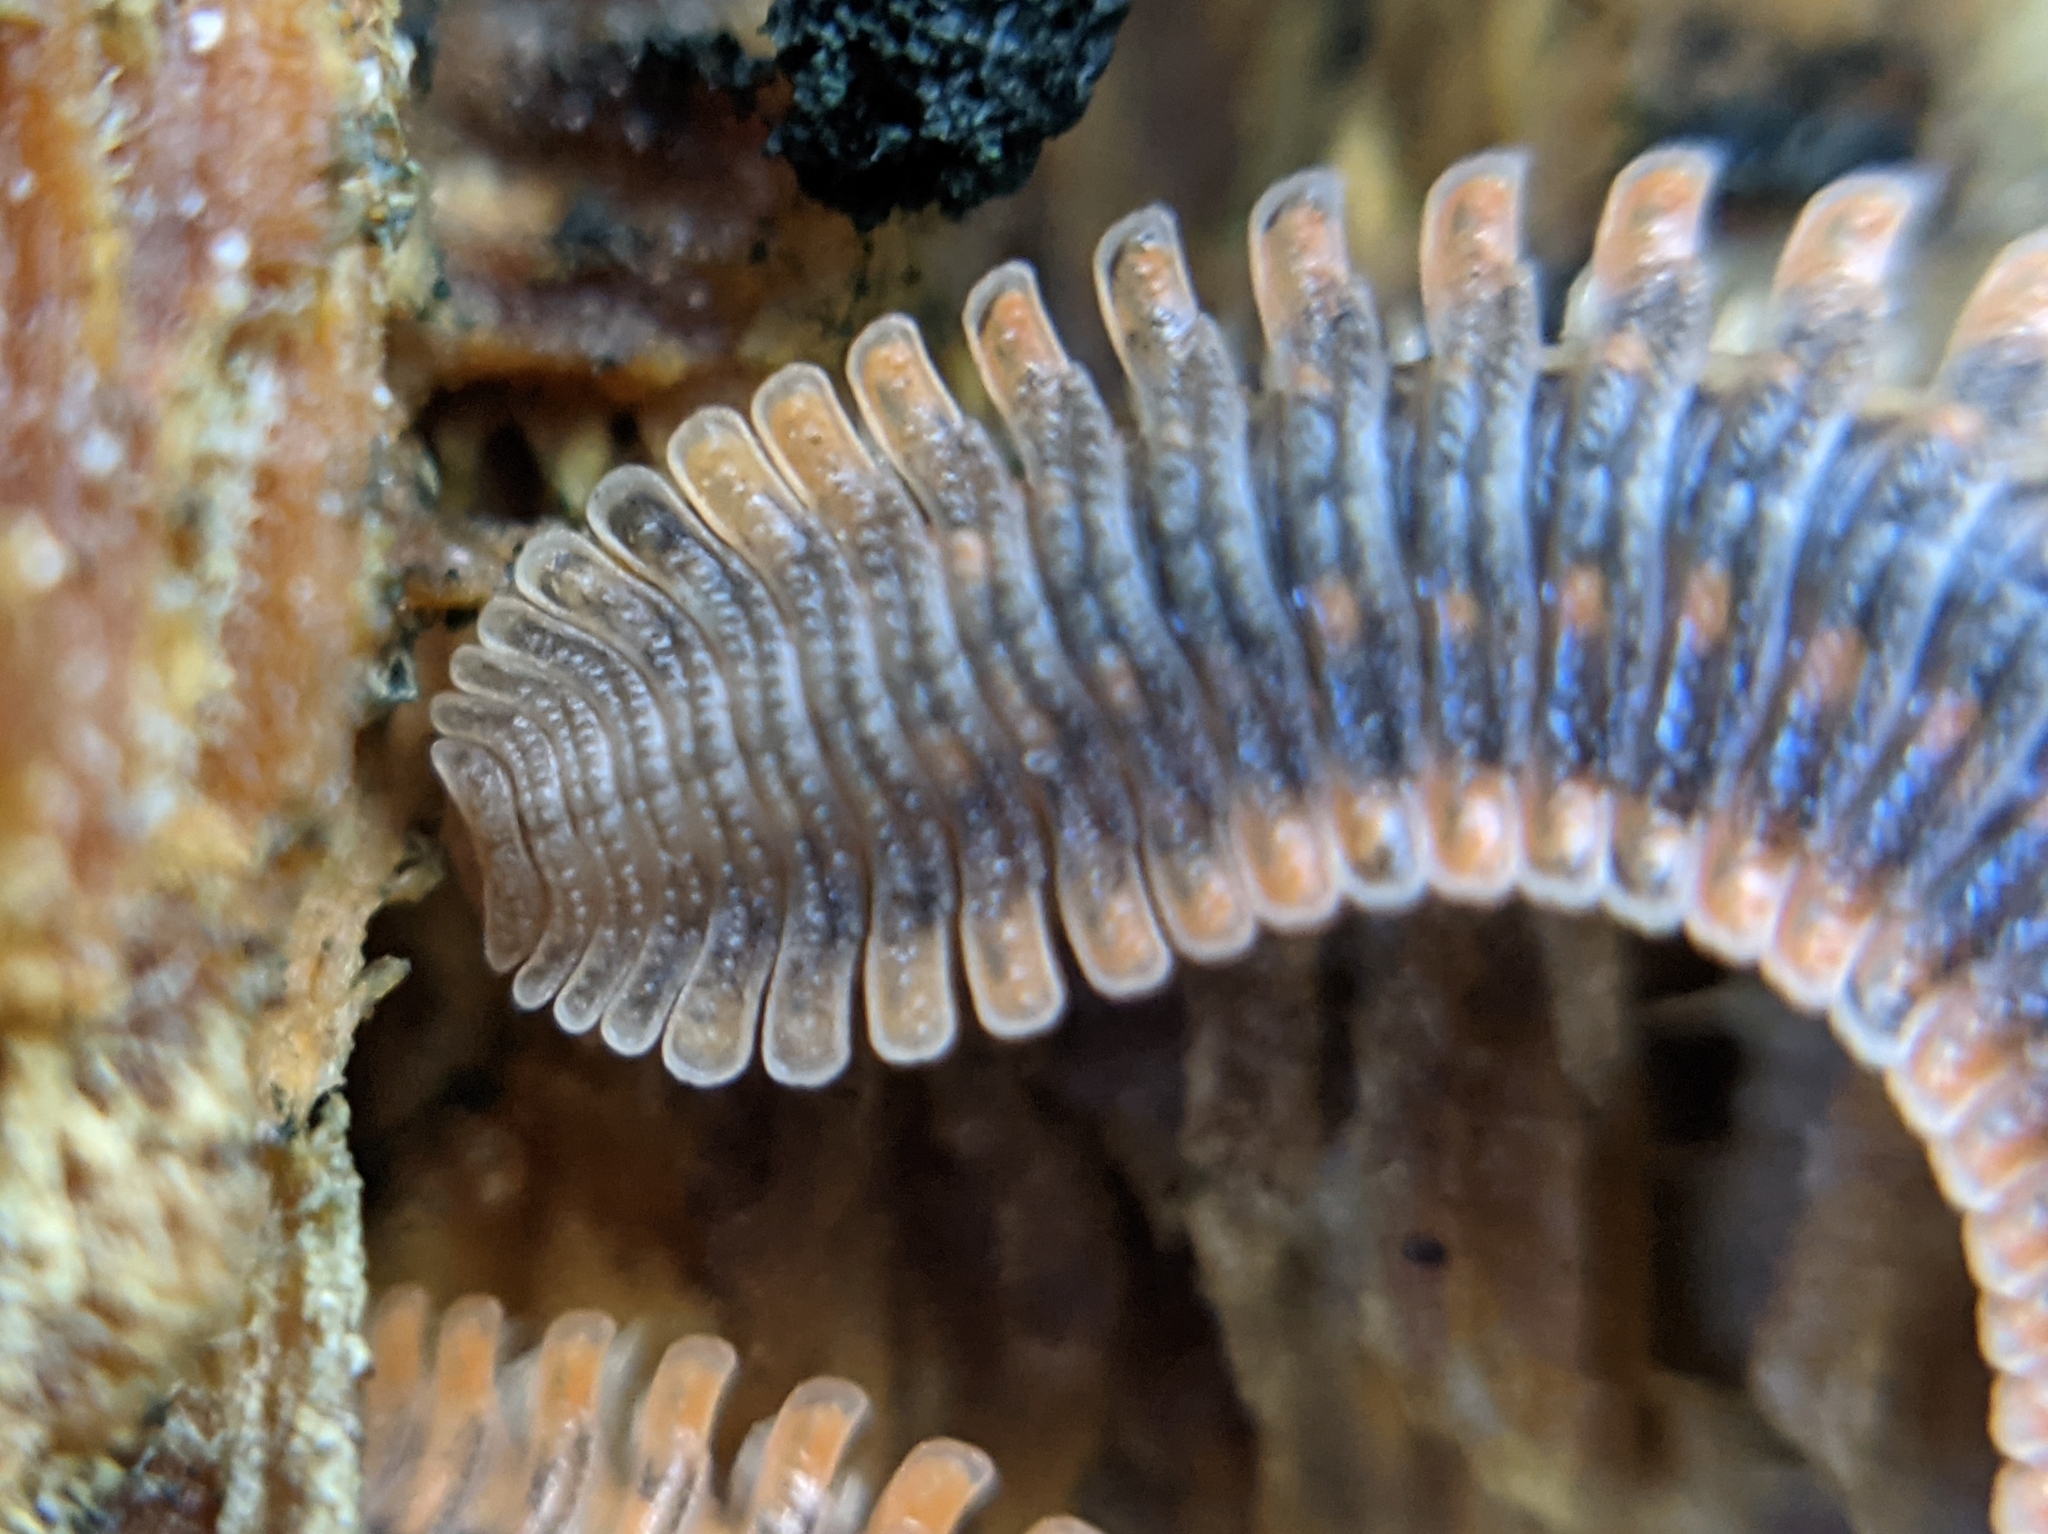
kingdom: Animalia
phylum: Arthropoda
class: Diplopoda
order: Platydesmida
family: Andrognathidae
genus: Brachycybe
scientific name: Brachycybe producta
